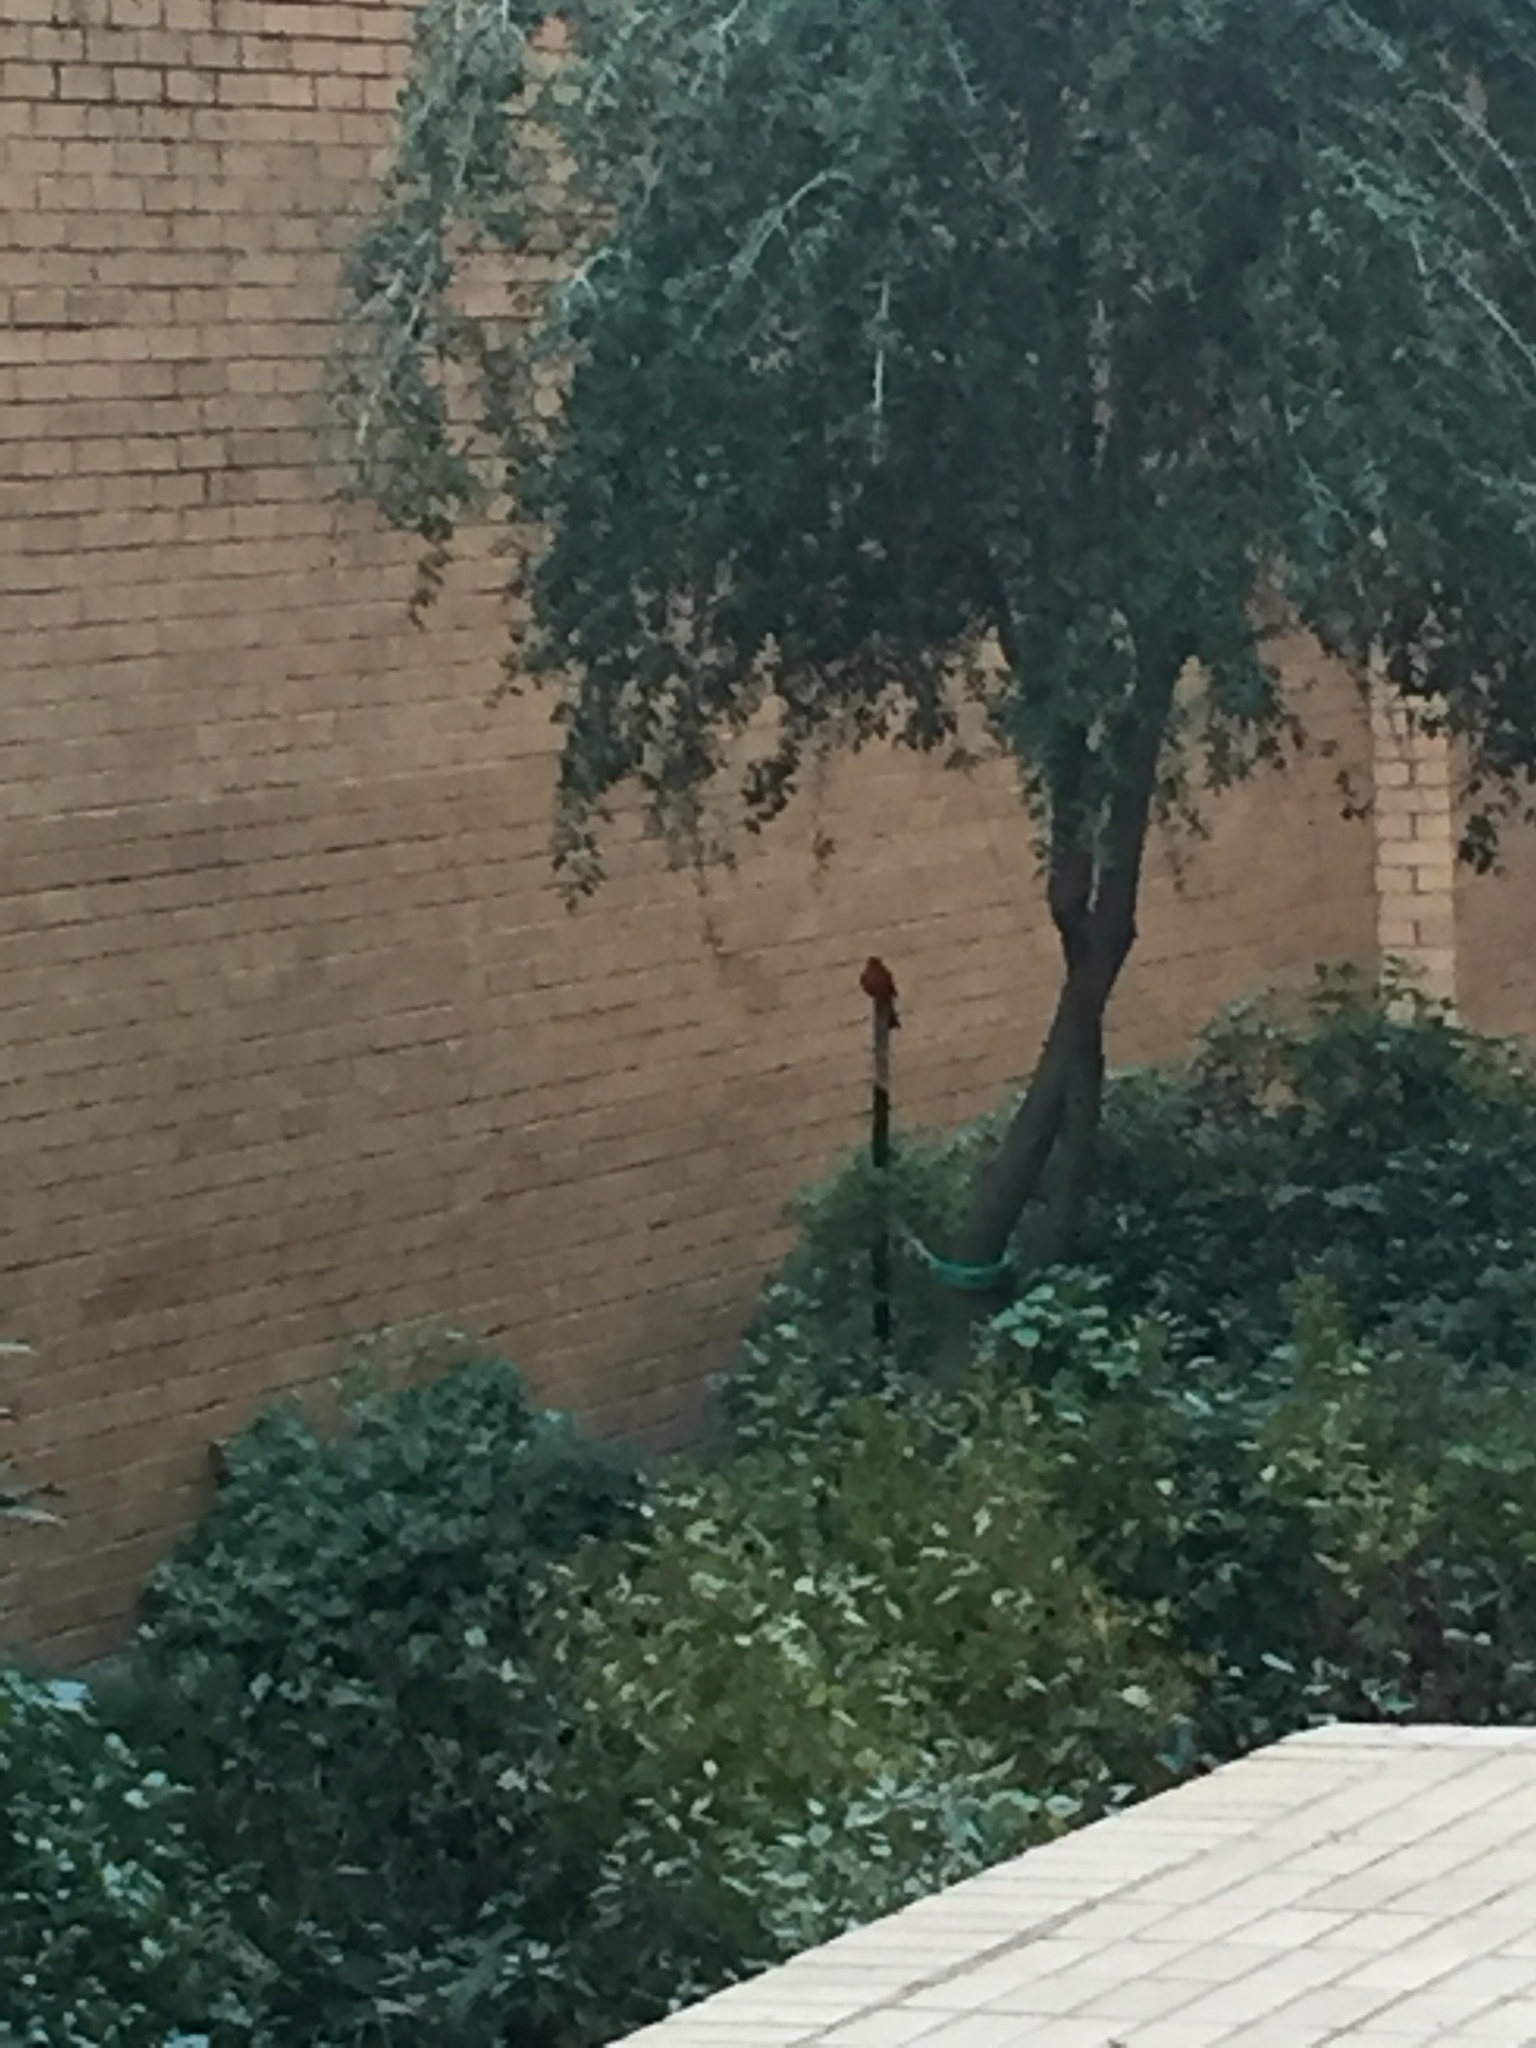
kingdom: Animalia
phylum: Chordata
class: Aves
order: Passeriformes
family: Cardinalidae
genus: Cardinalis
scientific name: Cardinalis cardinalis
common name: Northern cardinal
